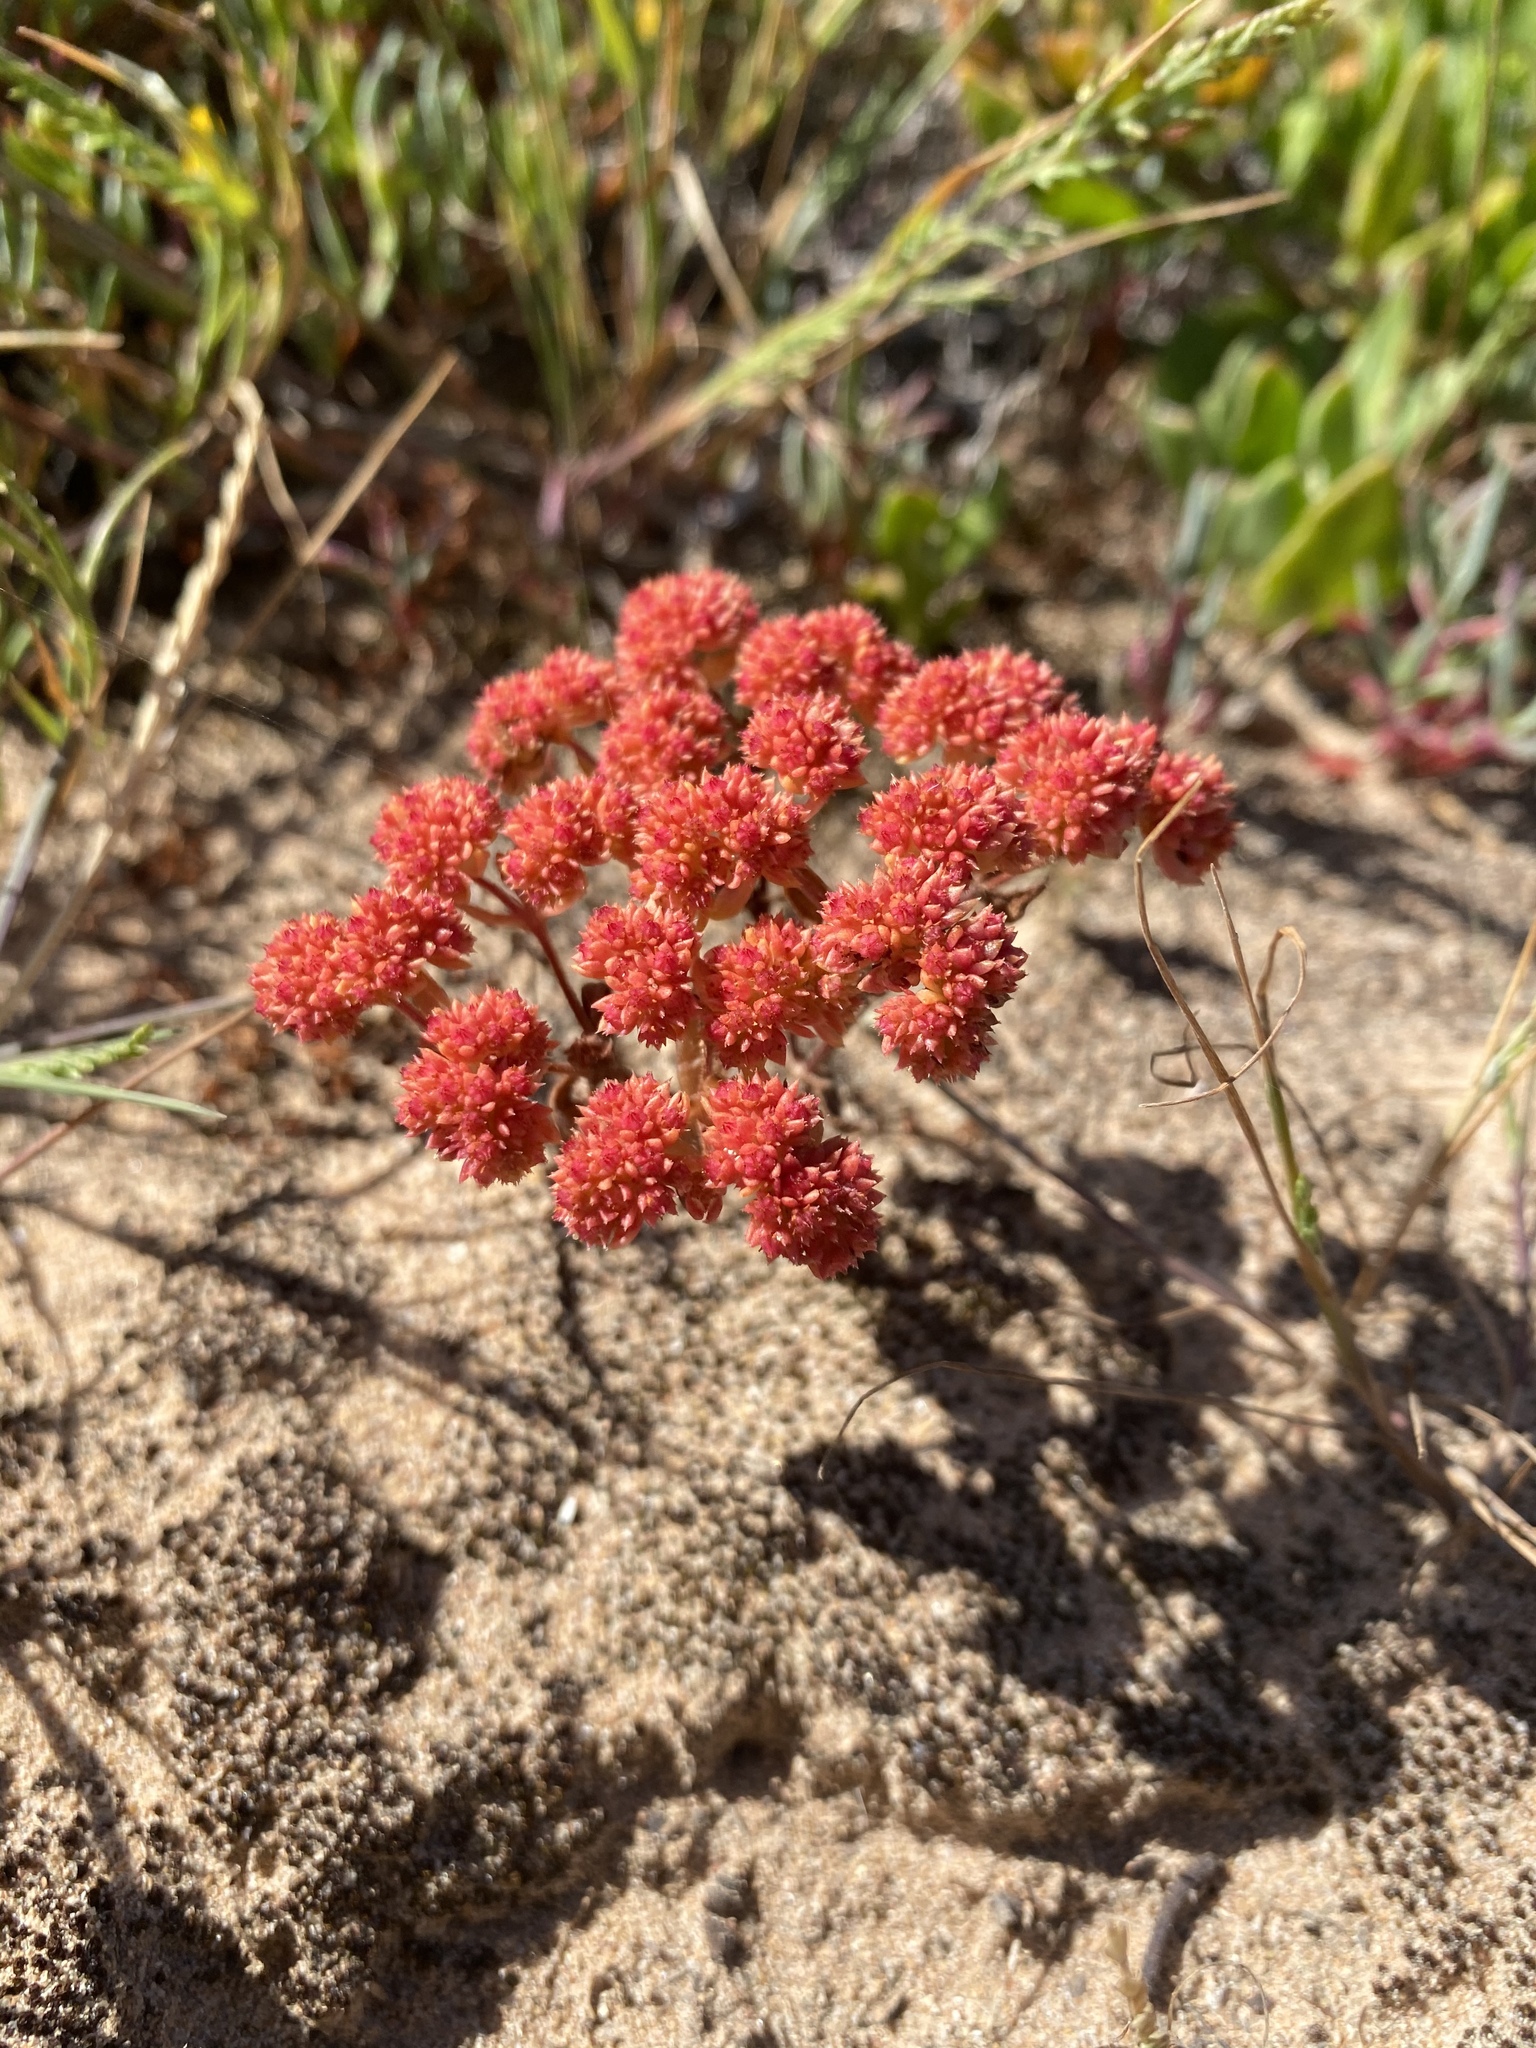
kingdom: Plantae
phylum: Tracheophyta
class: Magnoliopsida
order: Saxifragales
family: Crassulaceae
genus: Crassula
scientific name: Crassula glomerata
